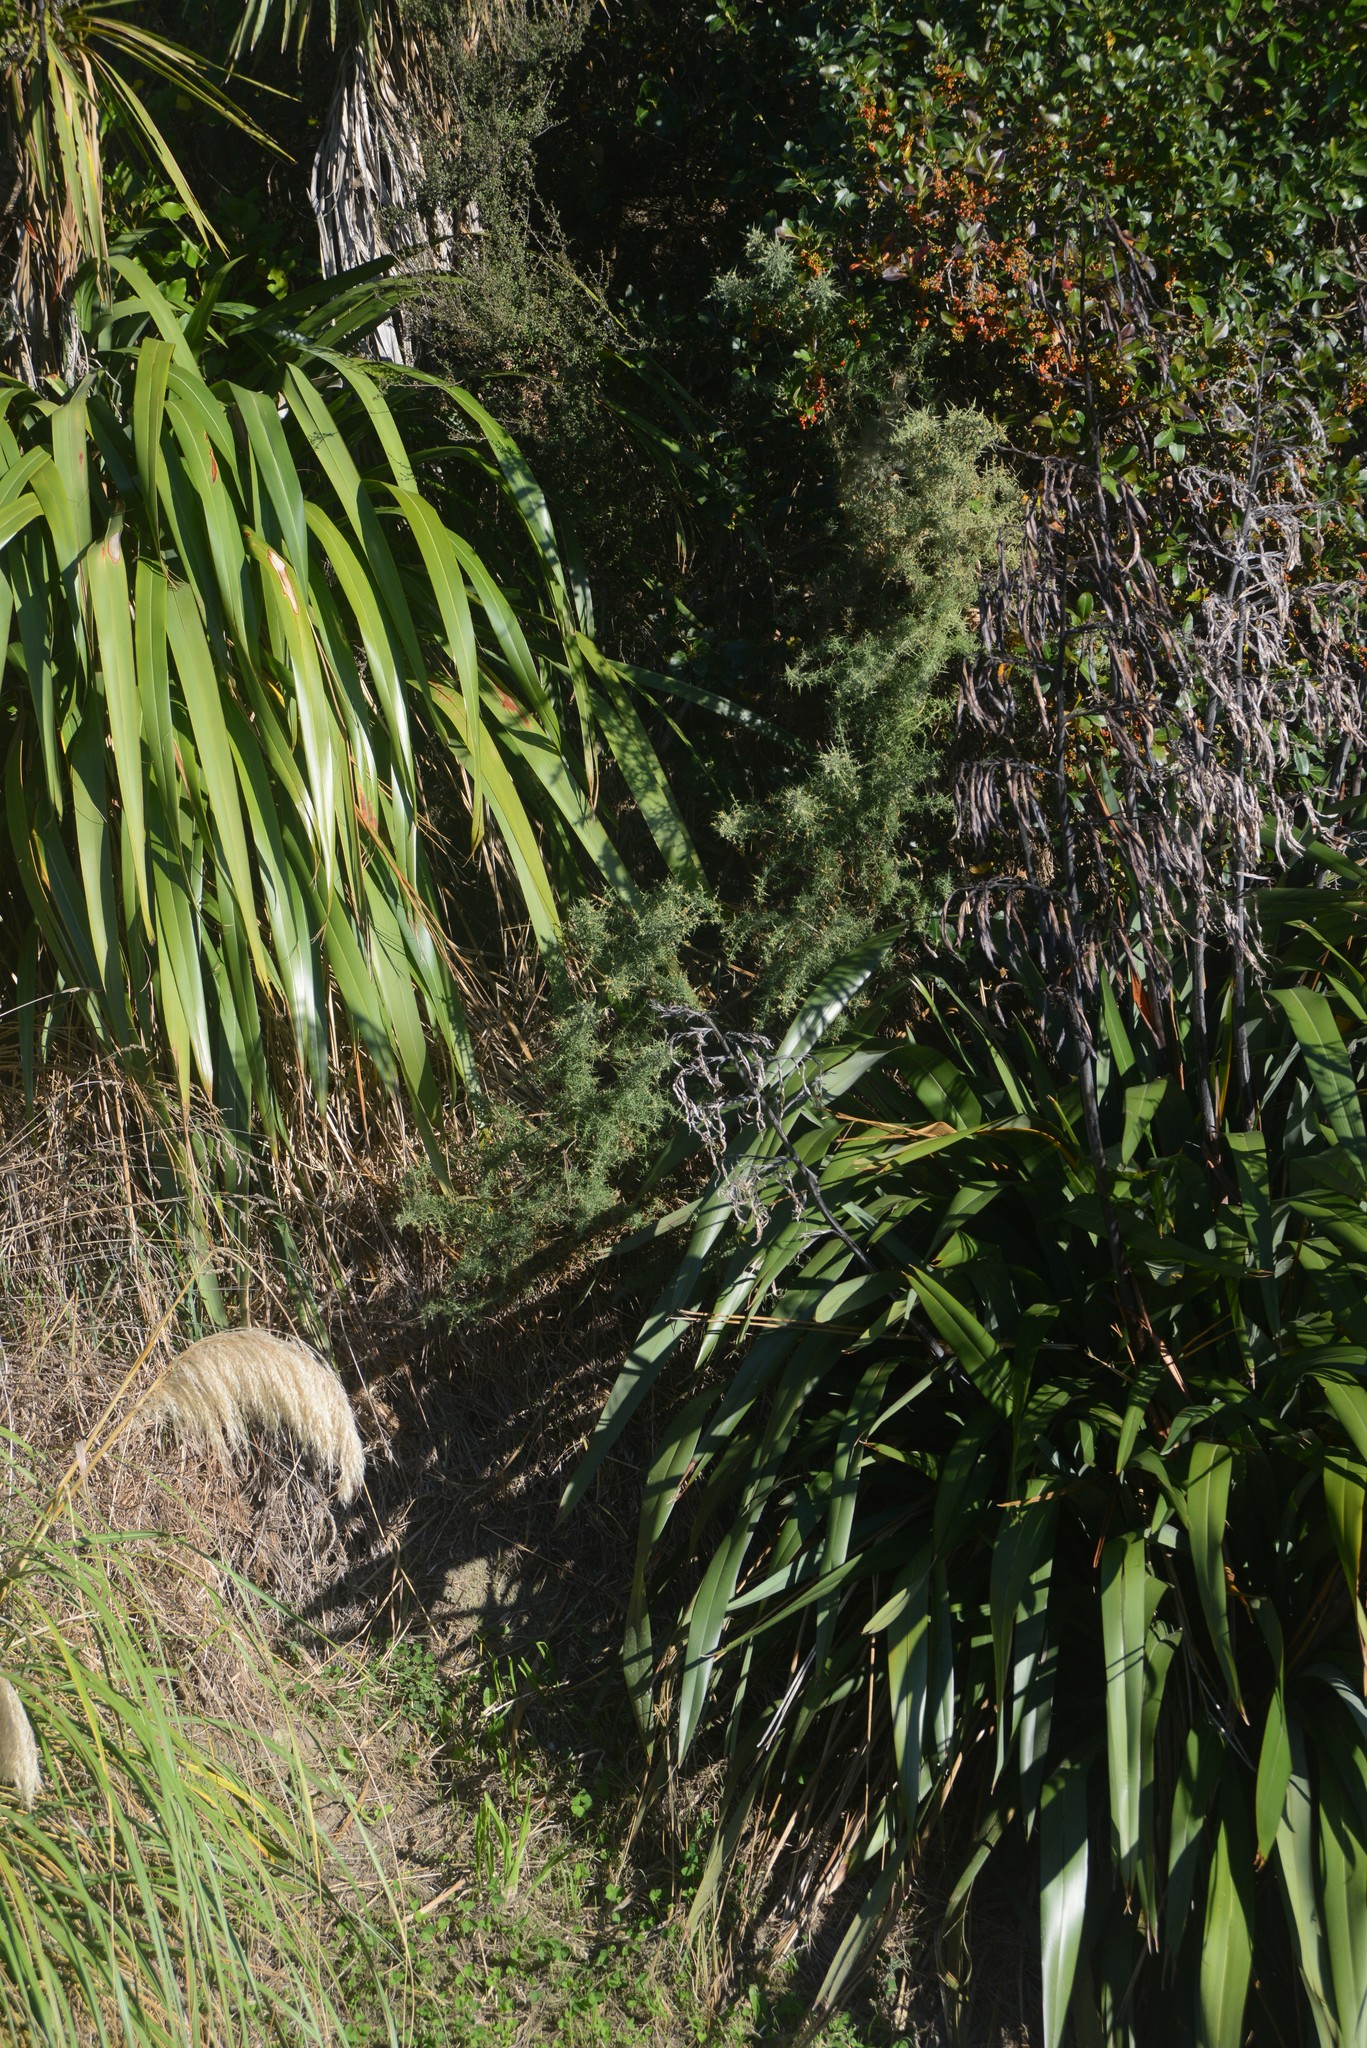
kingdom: Plantae
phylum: Tracheophyta
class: Magnoliopsida
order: Fabales
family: Fabaceae
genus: Ulex
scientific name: Ulex europaeus
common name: Common gorse
